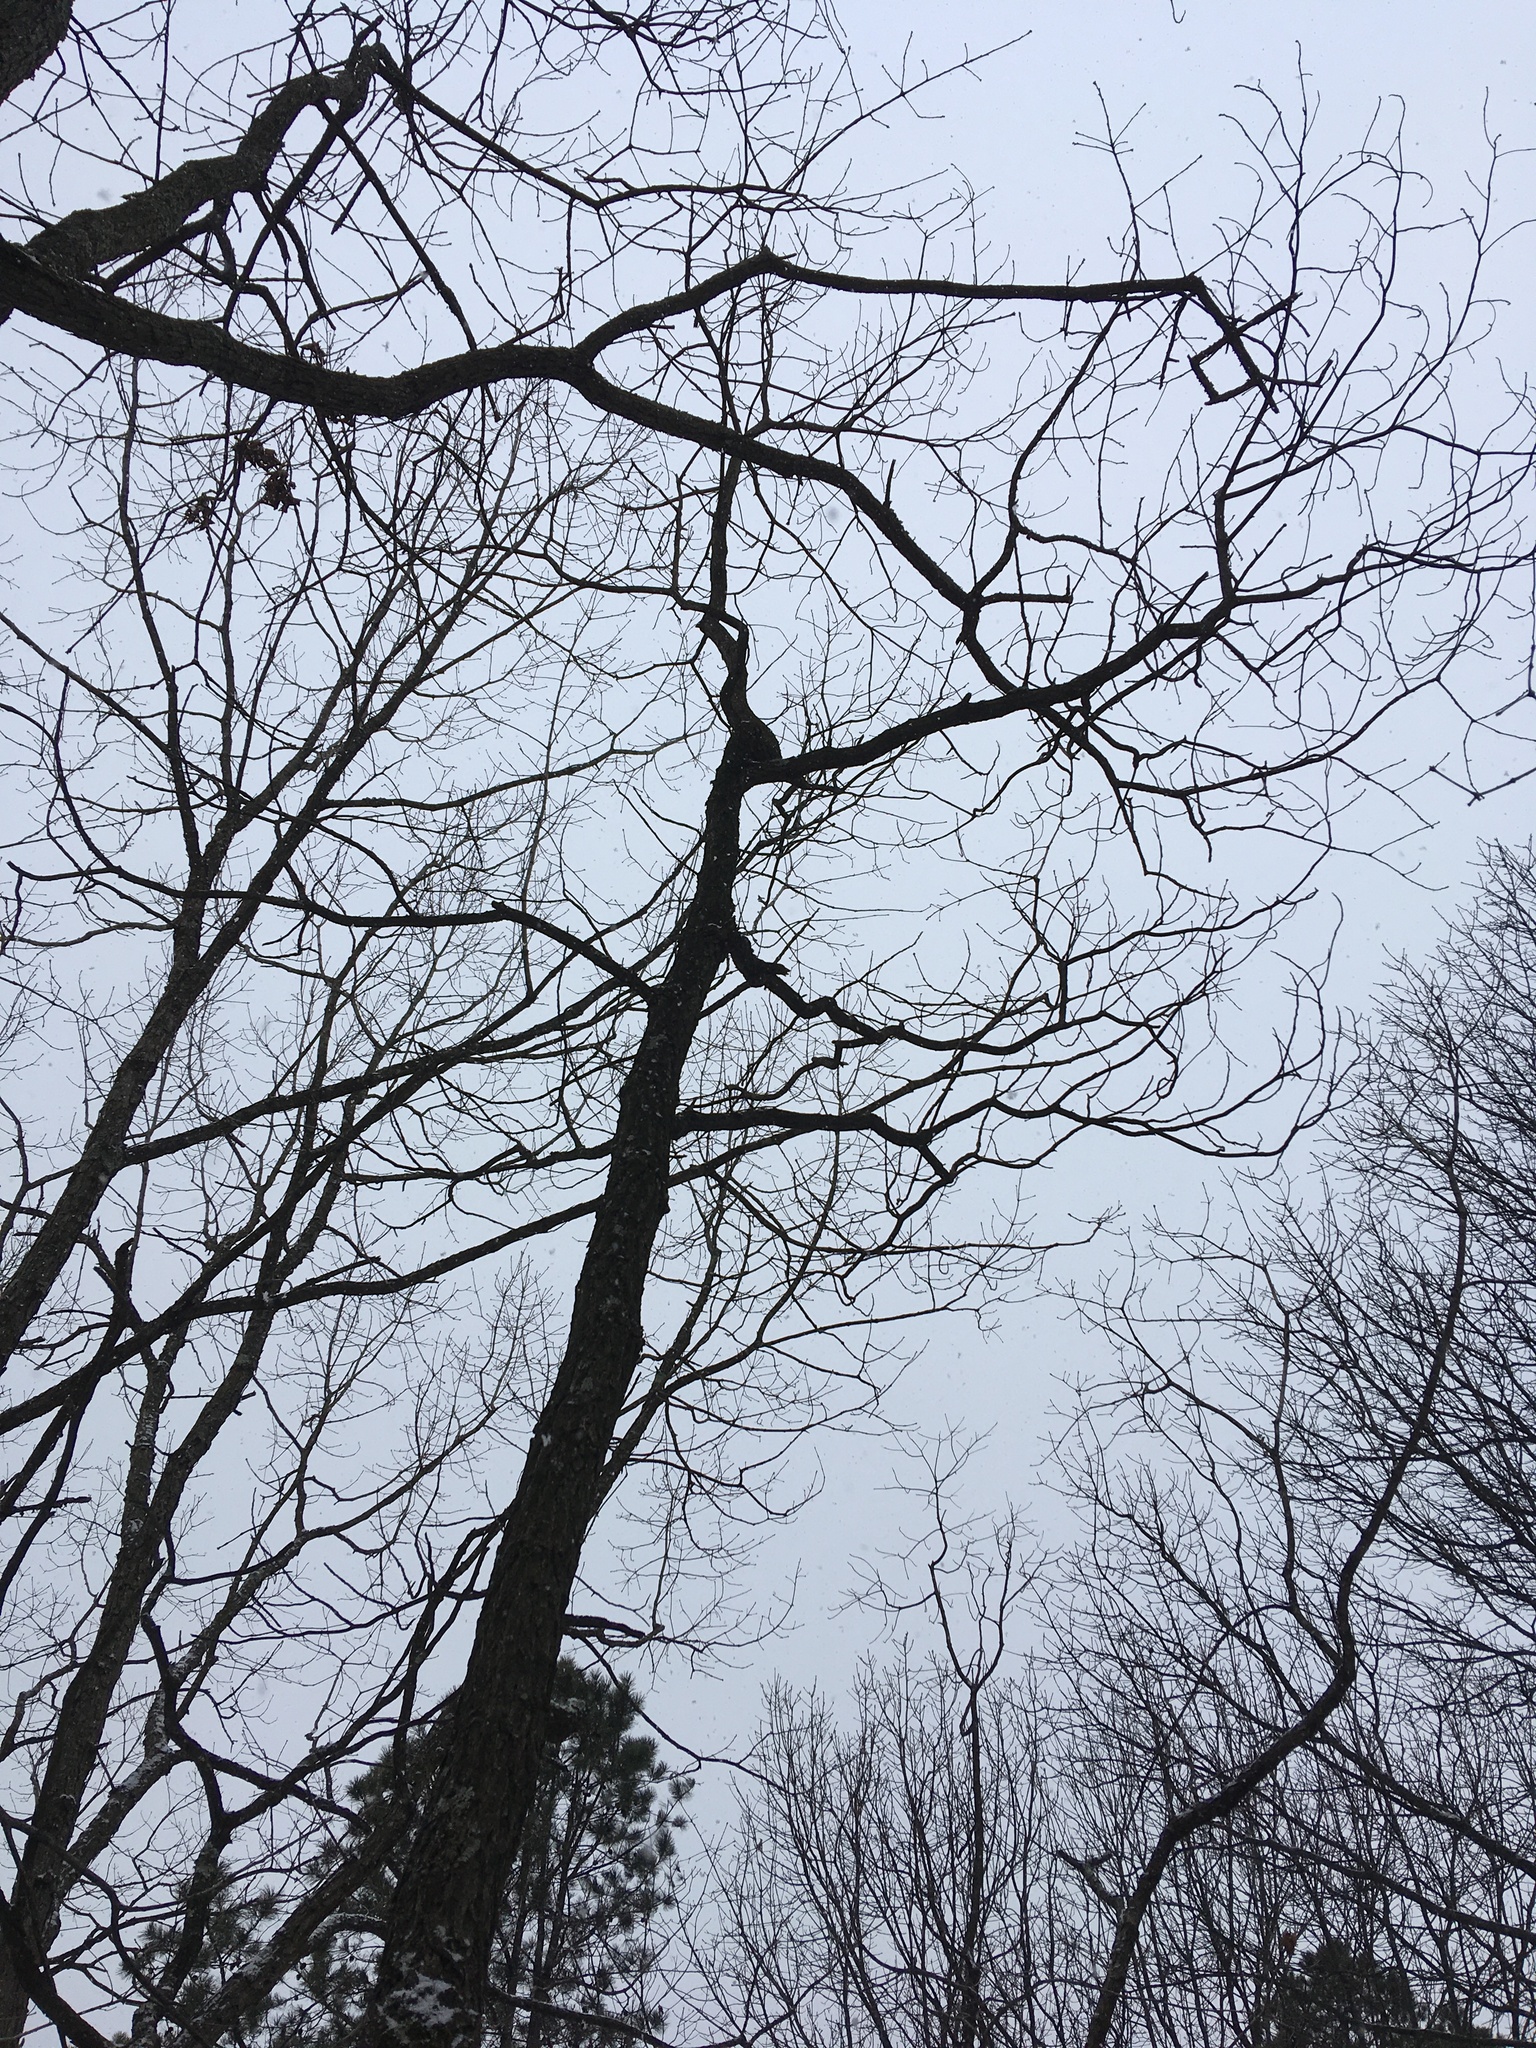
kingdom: Plantae
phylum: Tracheophyta
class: Magnoliopsida
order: Laurales
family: Lauraceae
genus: Sassafras
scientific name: Sassafras albidum
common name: Sassafras
